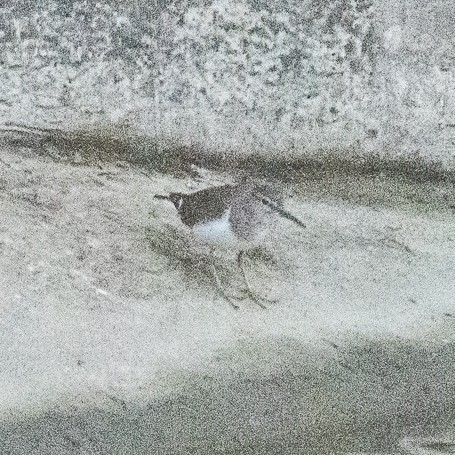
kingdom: Animalia
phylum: Chordata
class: Aves
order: Charadriiformes
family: Scolopacidae
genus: Actitis
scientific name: Actitis hypoleucos
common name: Common sandpiper
